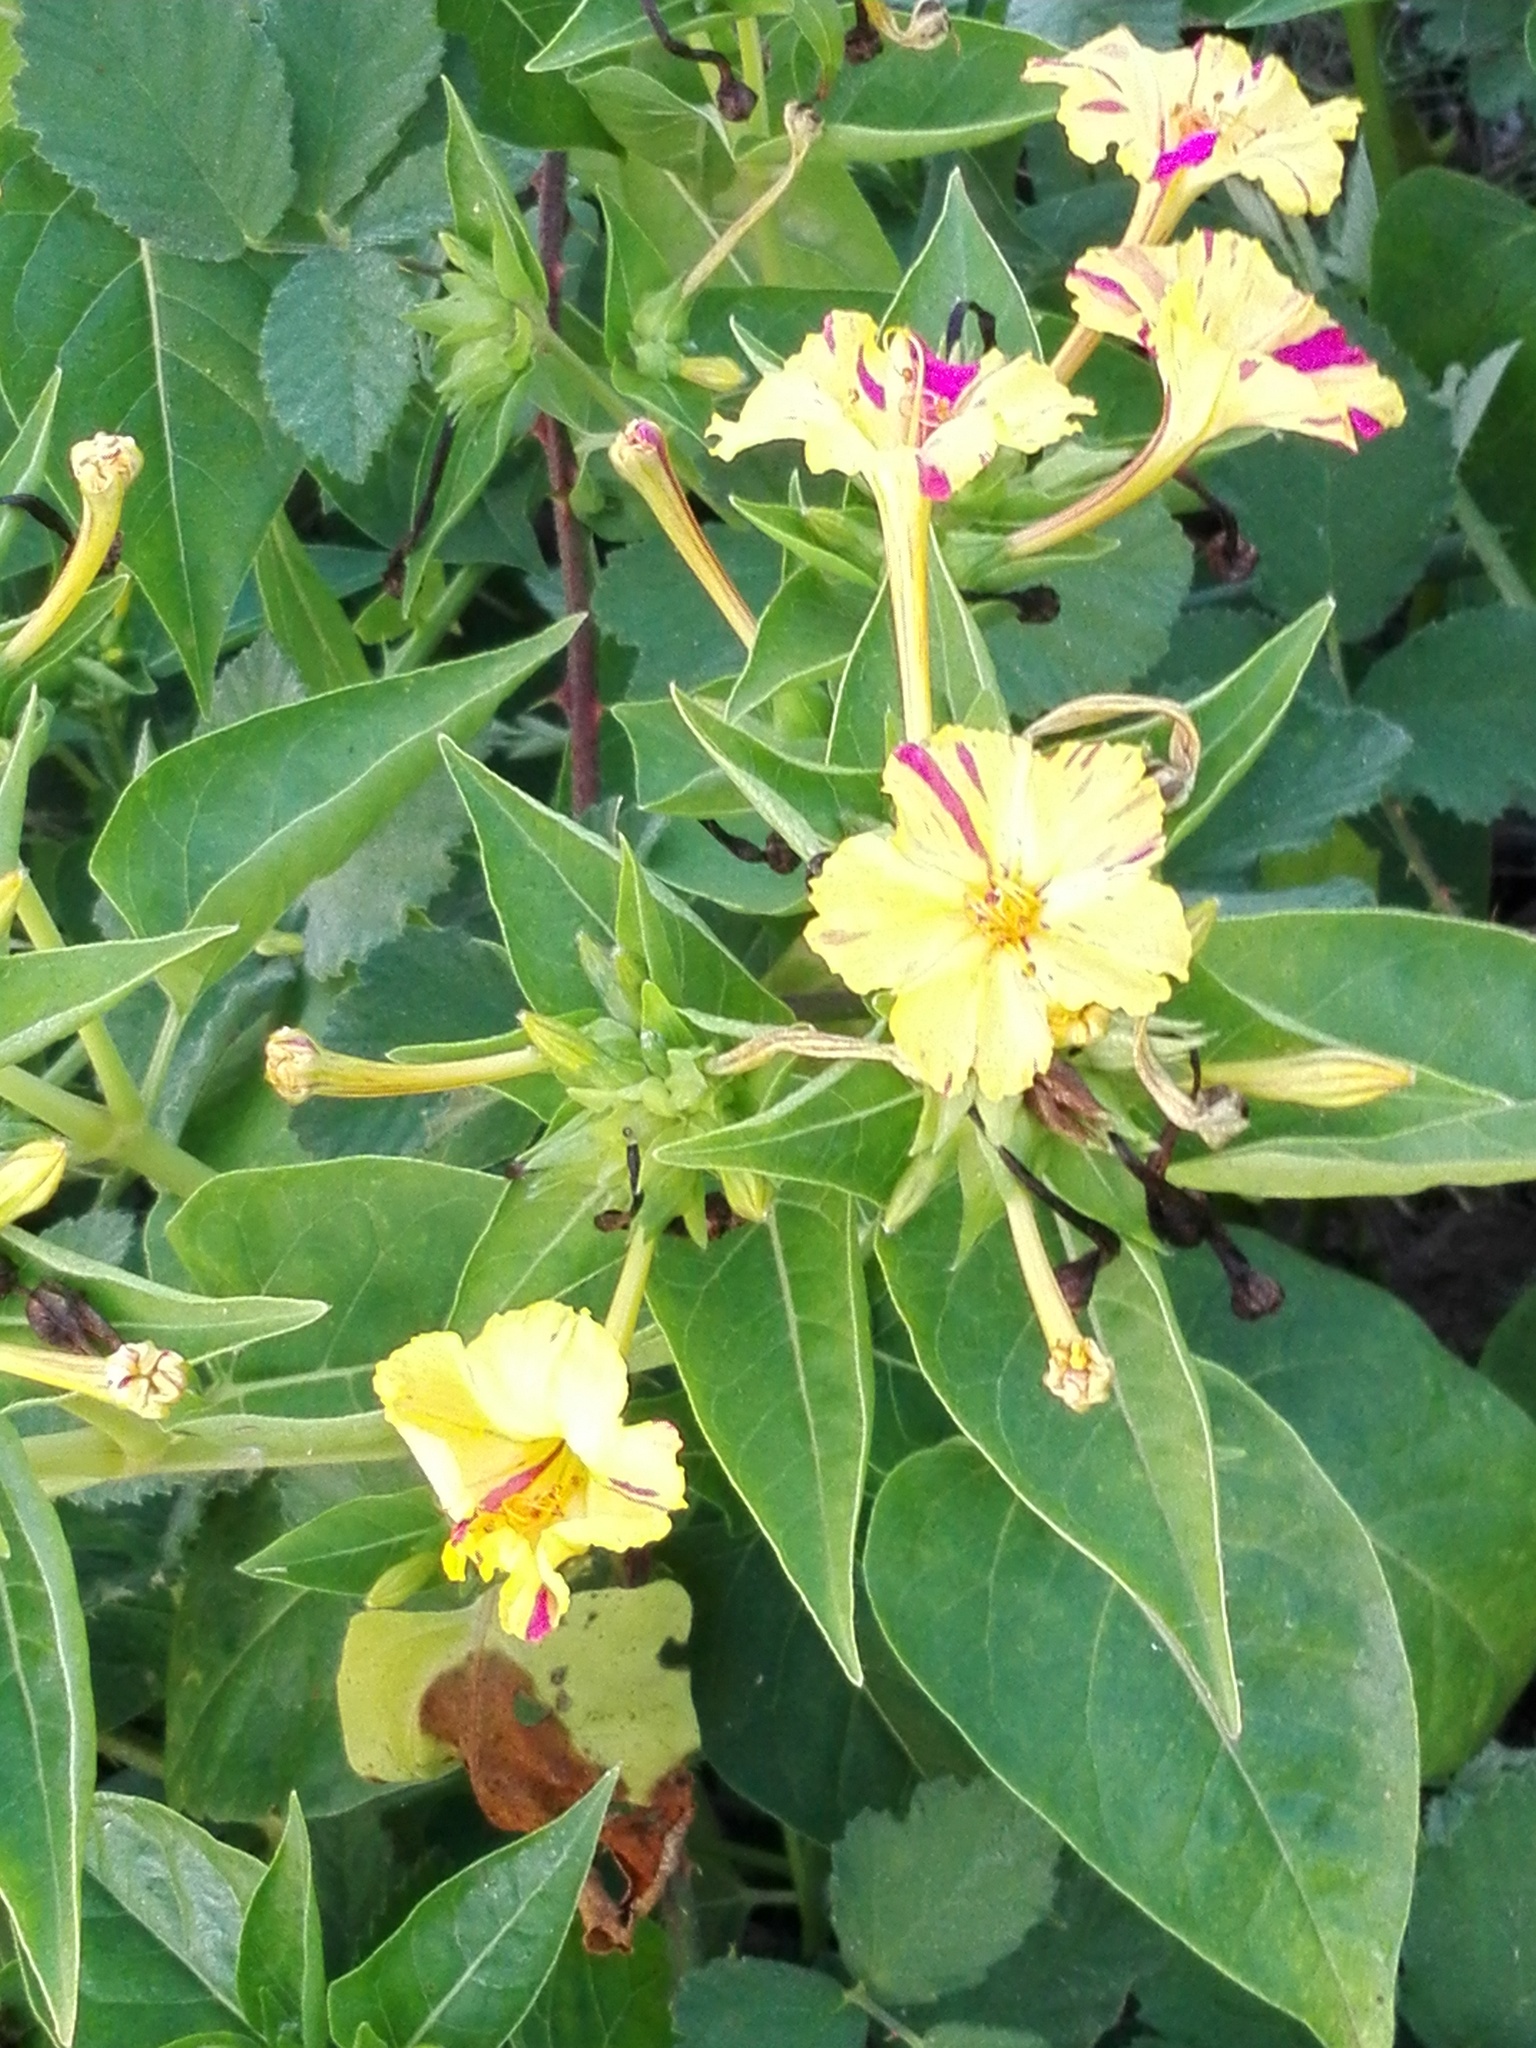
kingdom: Plantae
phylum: Tracheophyta
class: Magnoliopsida
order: Caryophyllales
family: Nyctaginaceae
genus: Mirabilis
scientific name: Mirabilis jalapa
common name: Marvel-of-peru
